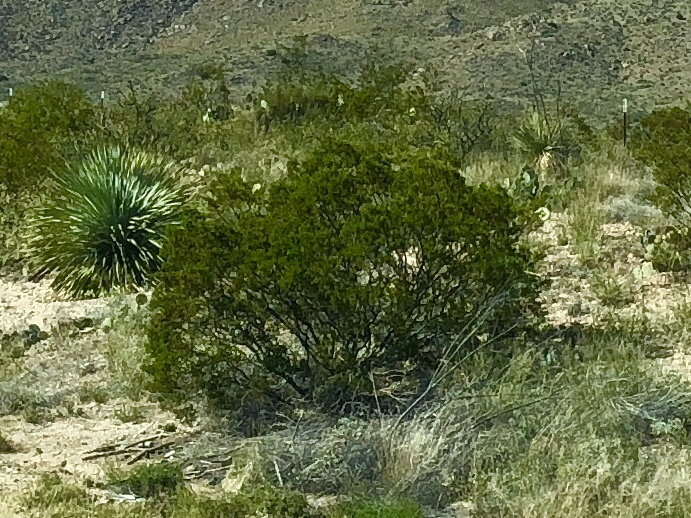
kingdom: Plantae
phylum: Tracheophyta
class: Magnoliopsida
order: Zygophyllales
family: Zygophyllaceae
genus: Larrea
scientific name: Larrea tridentata
